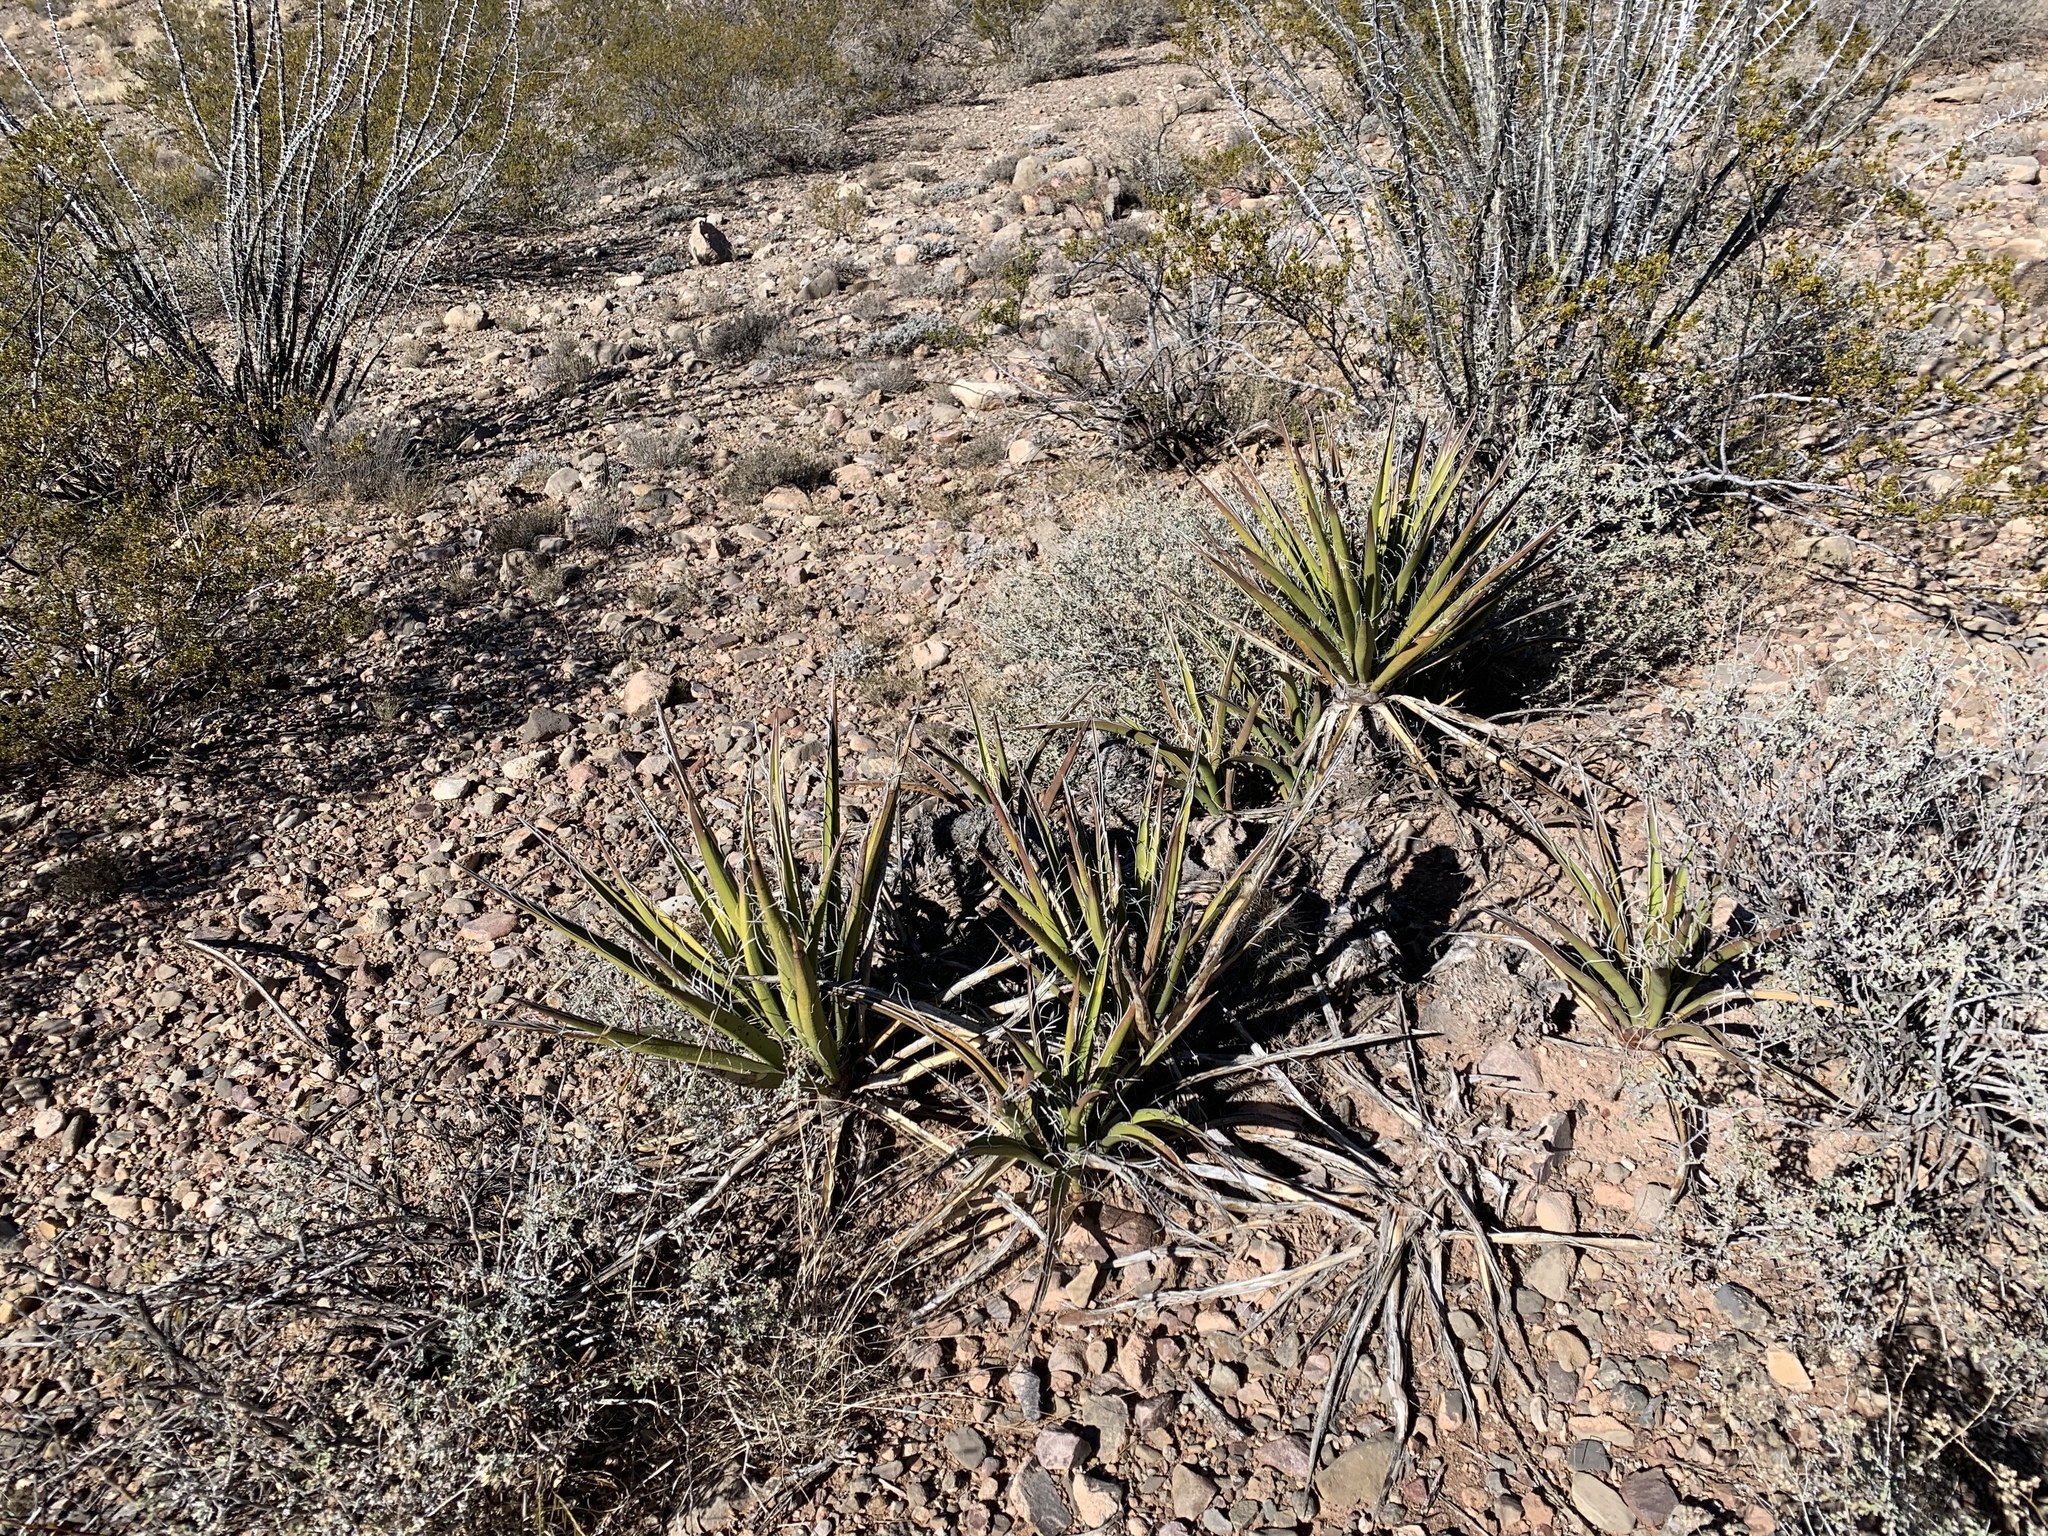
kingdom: Plantae
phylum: Tracheophyta
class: Liliopsida
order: Asparagales
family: Asparagaceae
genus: Yucca
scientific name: Yucca baccata
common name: Banana yucca
